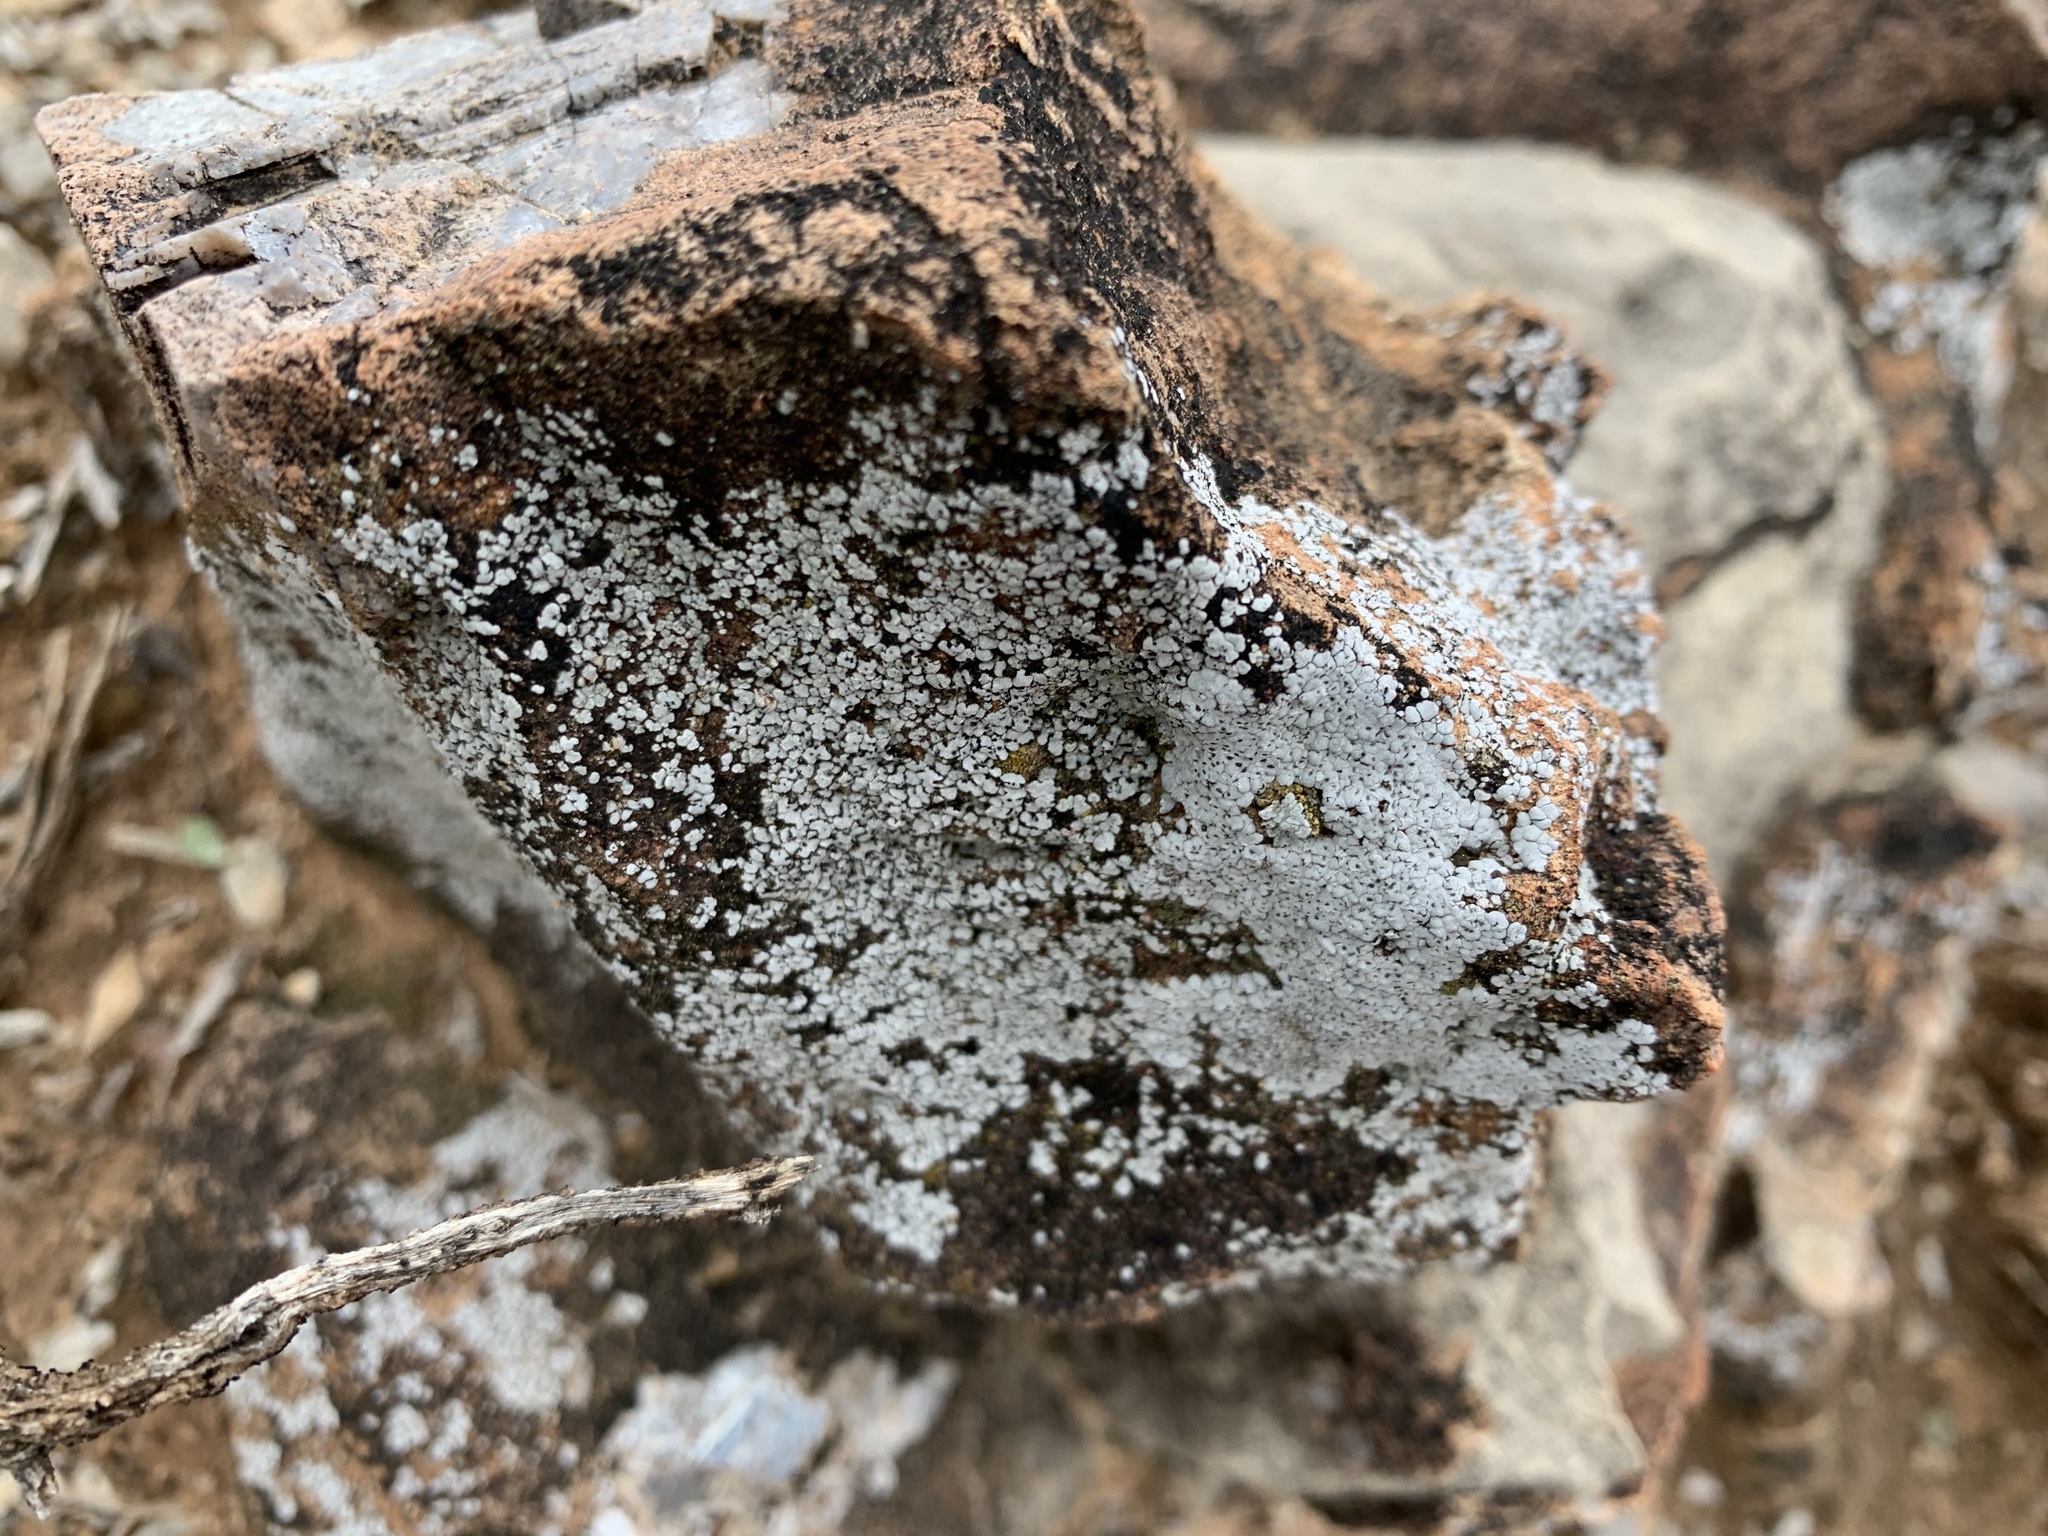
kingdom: Fungi
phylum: Ascomycota
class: Lecanoromycetes
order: Acarosporales
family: Acarosporaceae
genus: Acarospora
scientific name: Acarospora strigata
